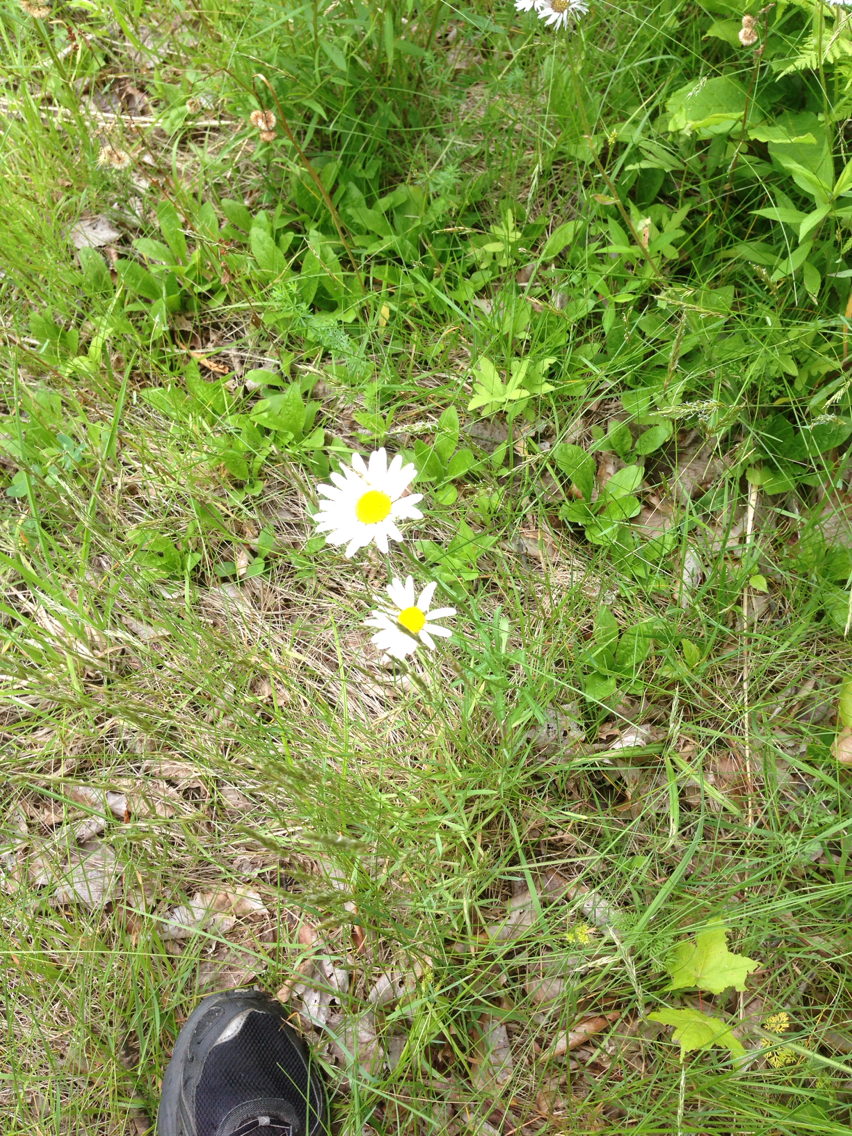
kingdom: Plantae
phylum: Tracheophyta
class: Magnoliopsida
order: Asterales
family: Asteraceae
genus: Leucanthemum
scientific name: Leucanthemum vulgare
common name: Oxeye daisy
